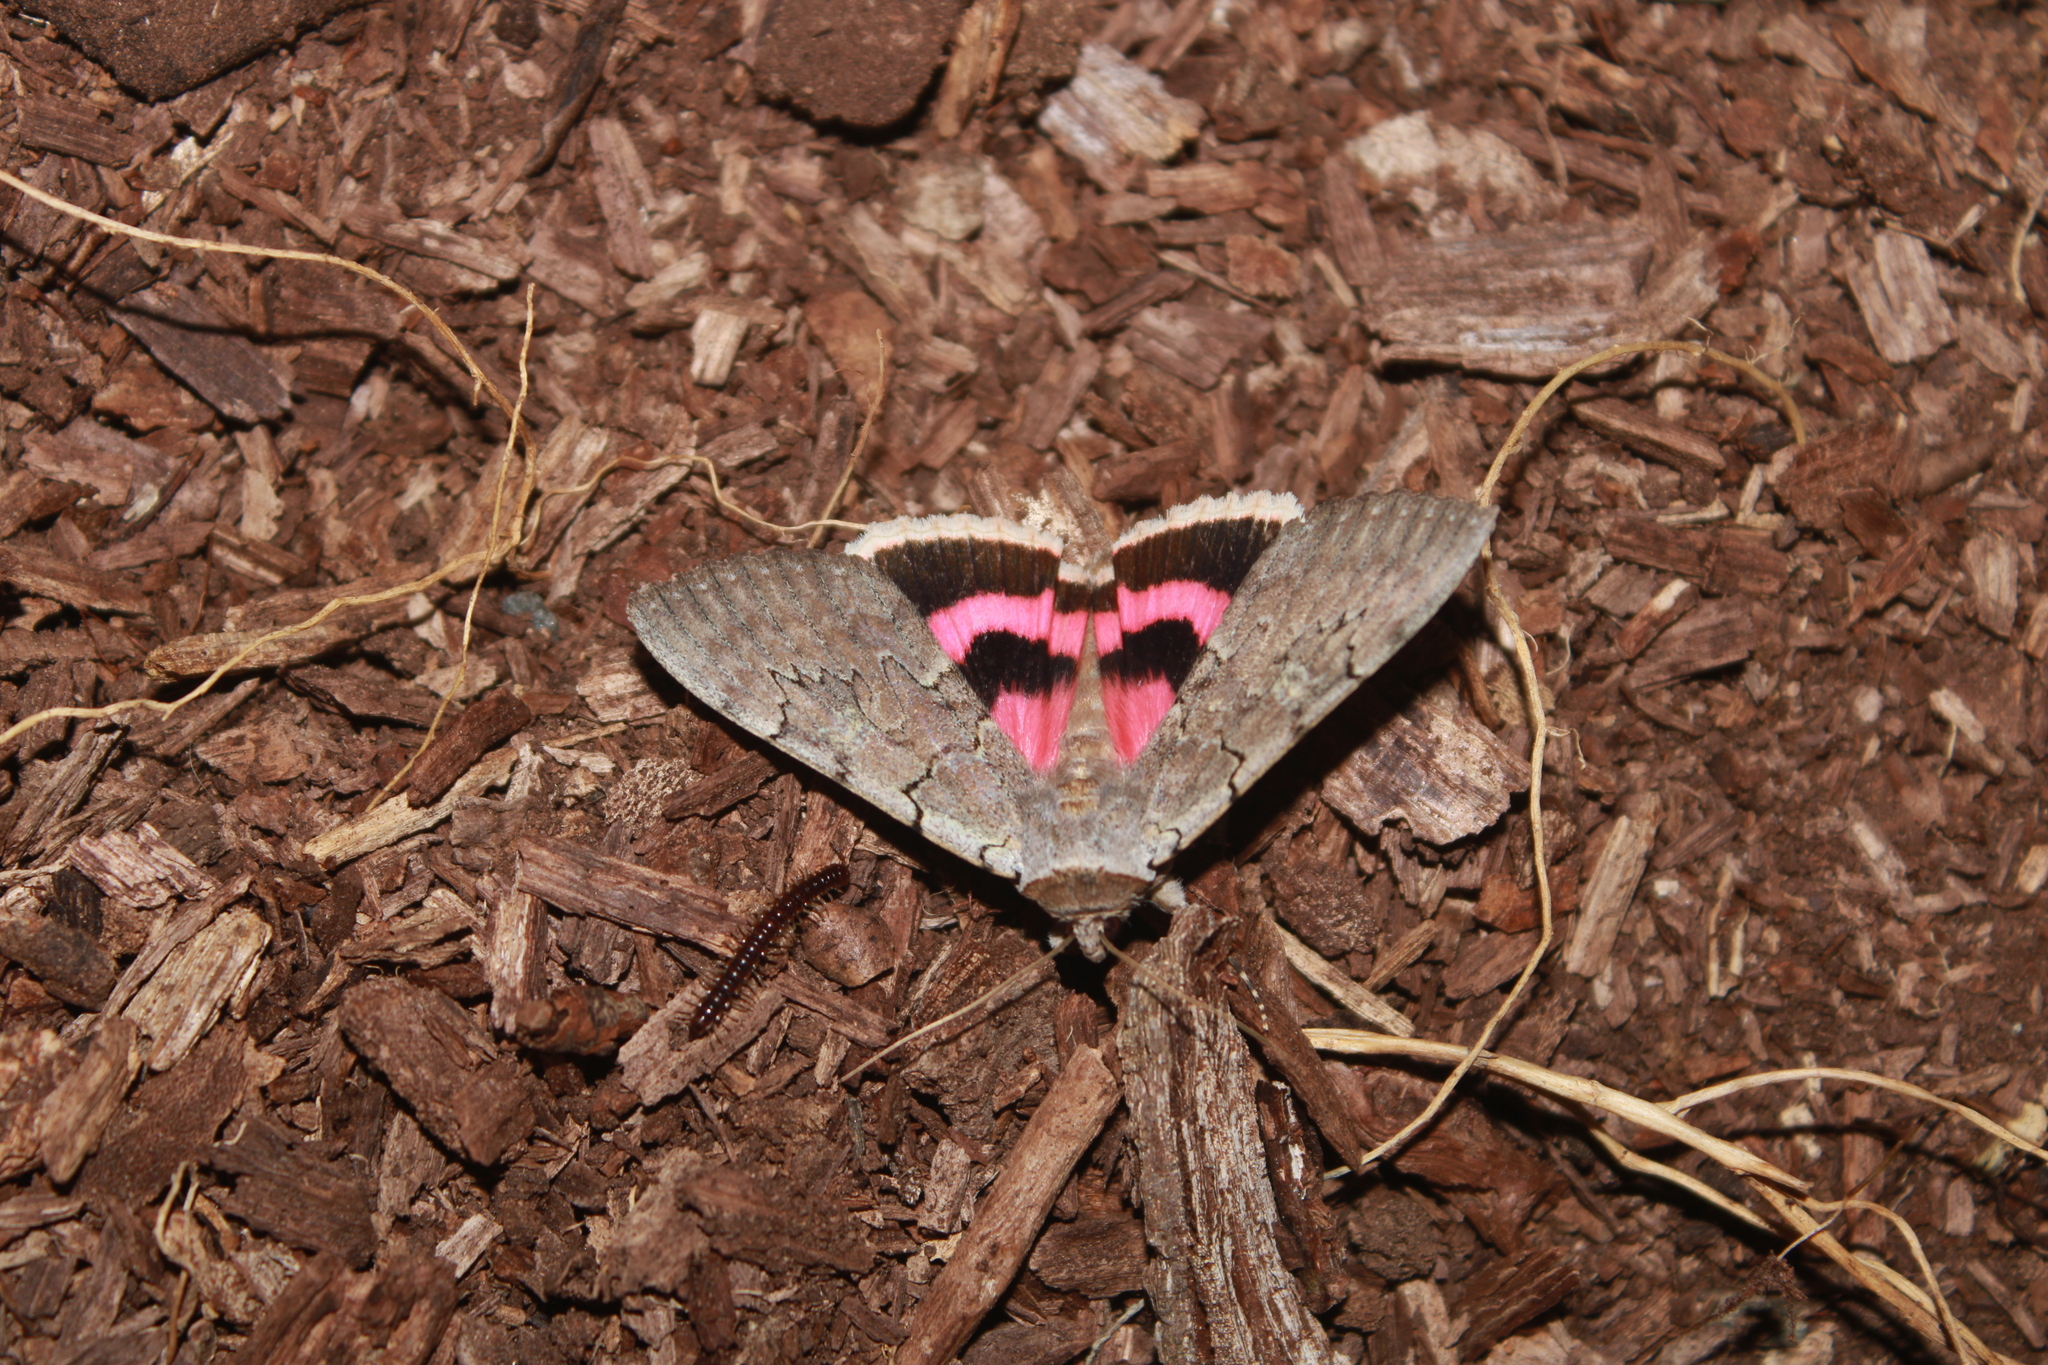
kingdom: Animalia
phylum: Arthropoda
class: Insecta
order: Lepidoptera
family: Erebidae
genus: Catocala
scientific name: Catocala concumbens
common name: Pink underwing
